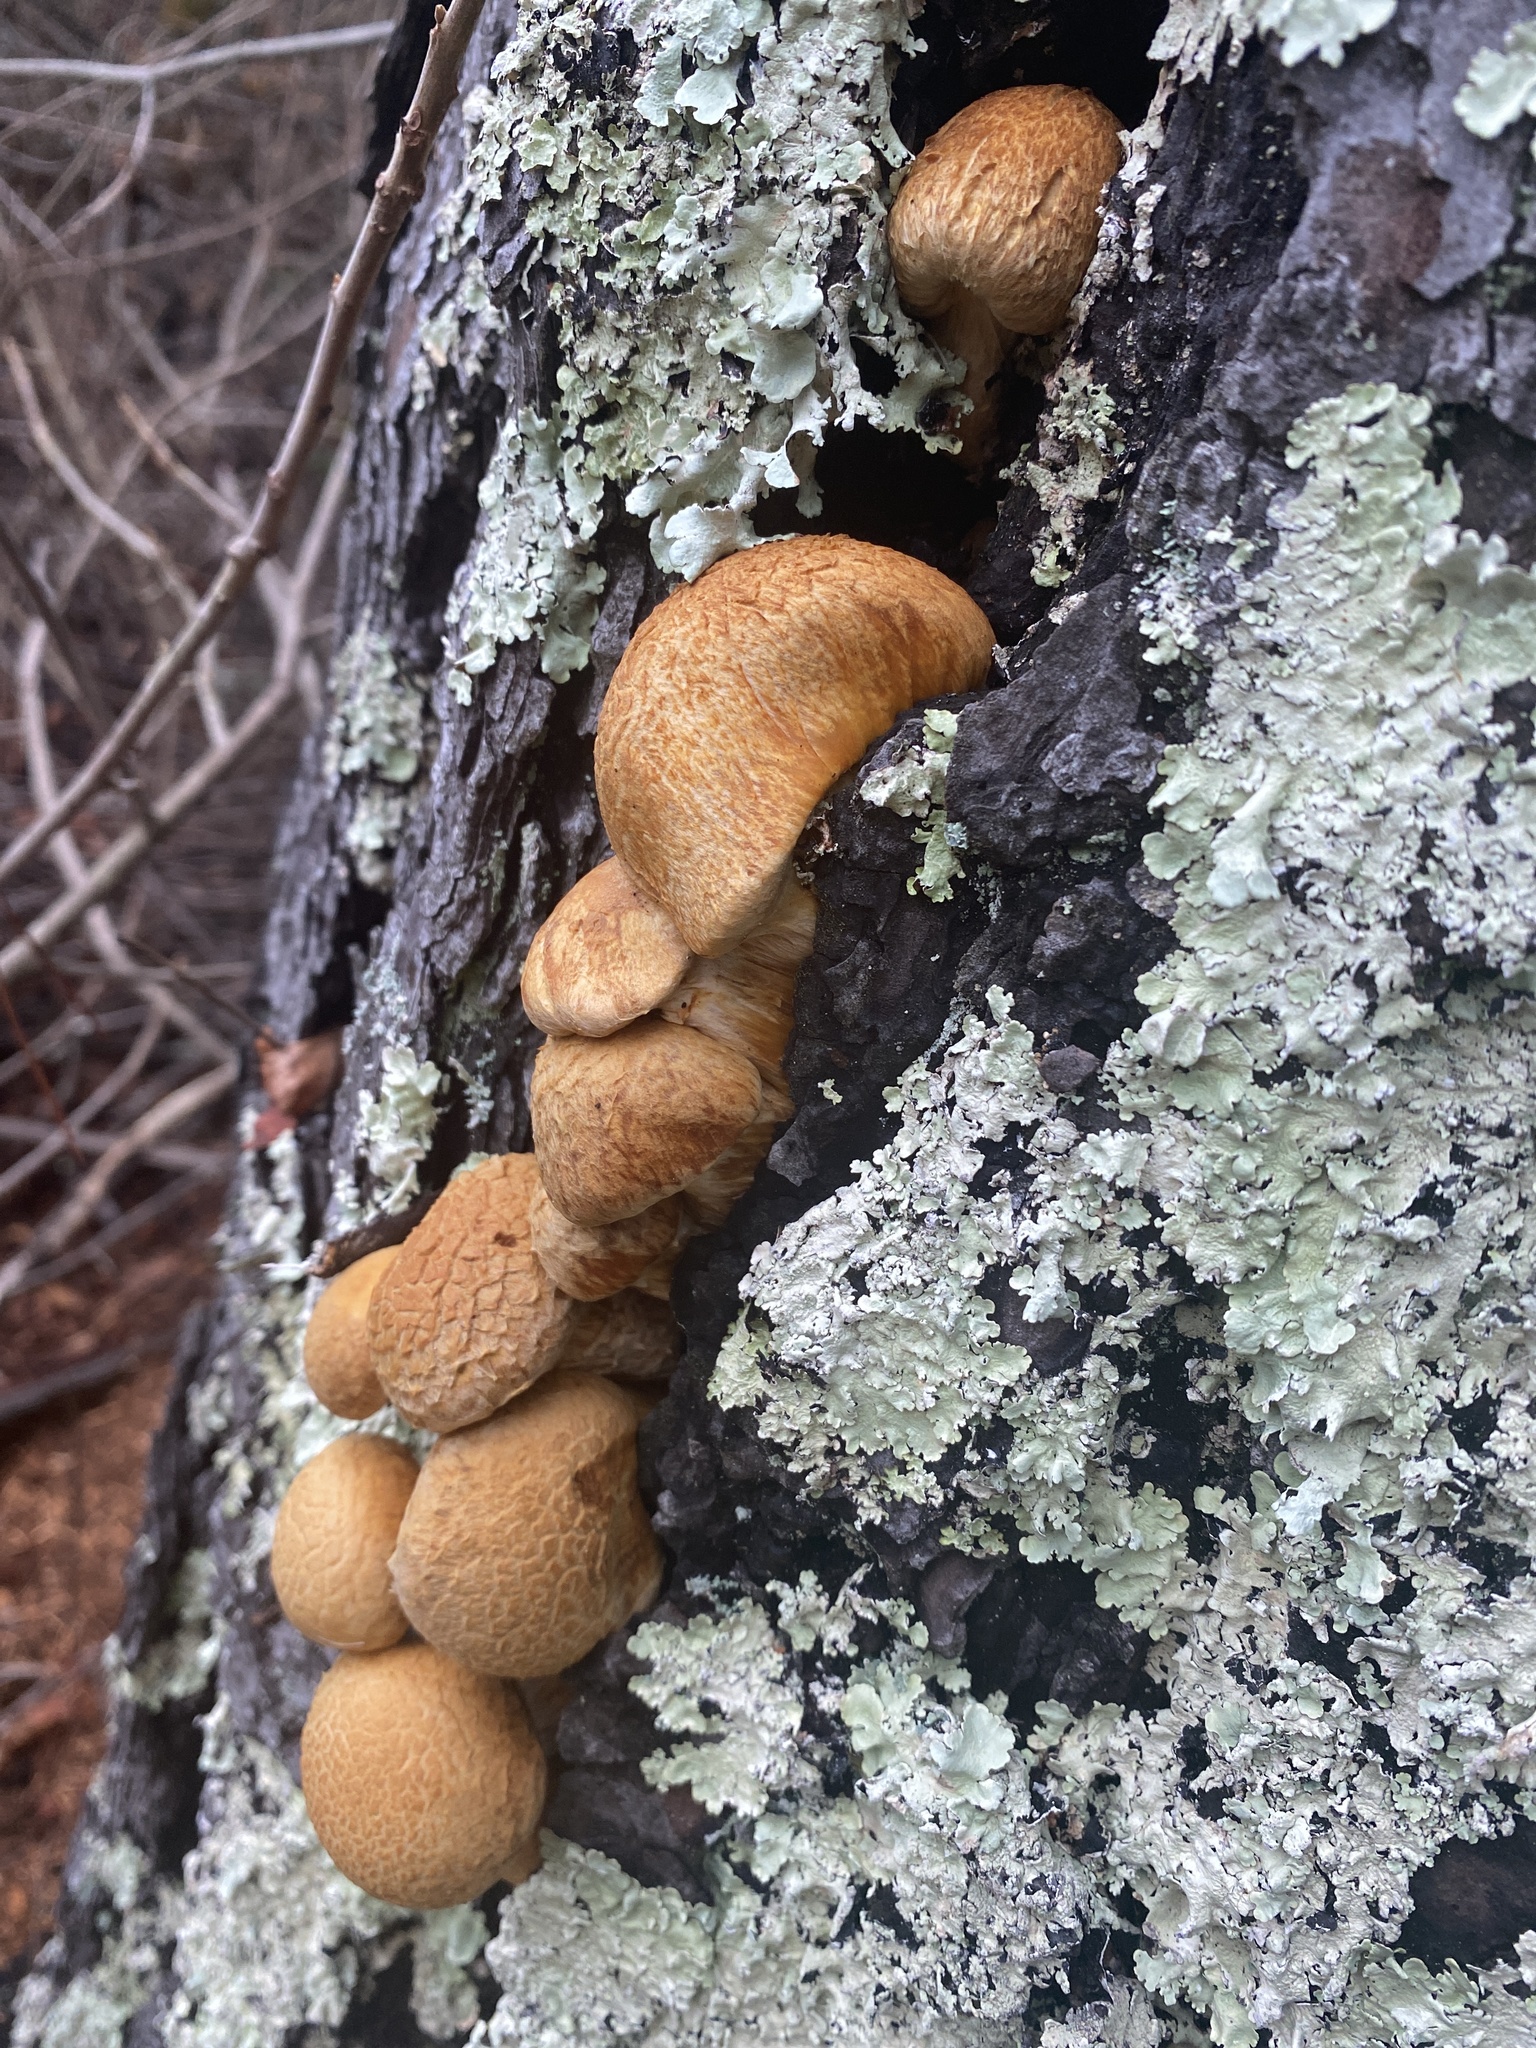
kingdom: Fungi
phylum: Basidiomycota
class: Agaricomycetes
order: Agaricales
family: Hymenogastraceae
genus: Gymnopilus
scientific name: Gymnopilus ventricosus
